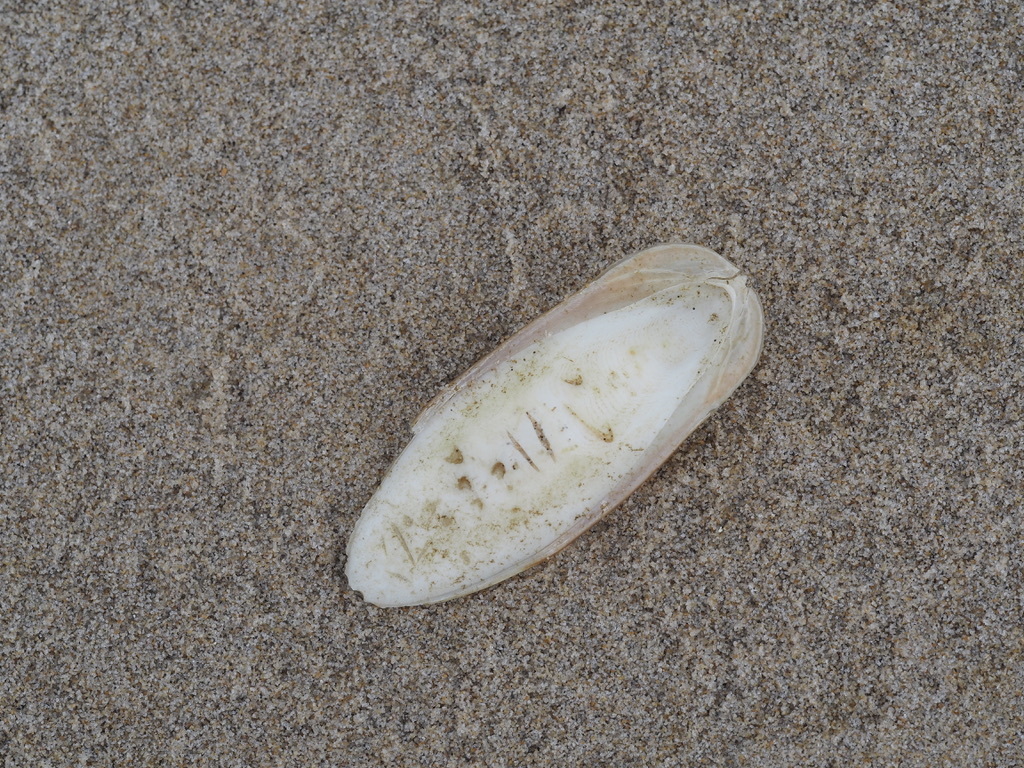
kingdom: Animalia
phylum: Mollusca
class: Cephalopoda
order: Sepiida
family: Sepiidae
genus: Sepia
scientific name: Sepia officinalis
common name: Common cuttlefish
